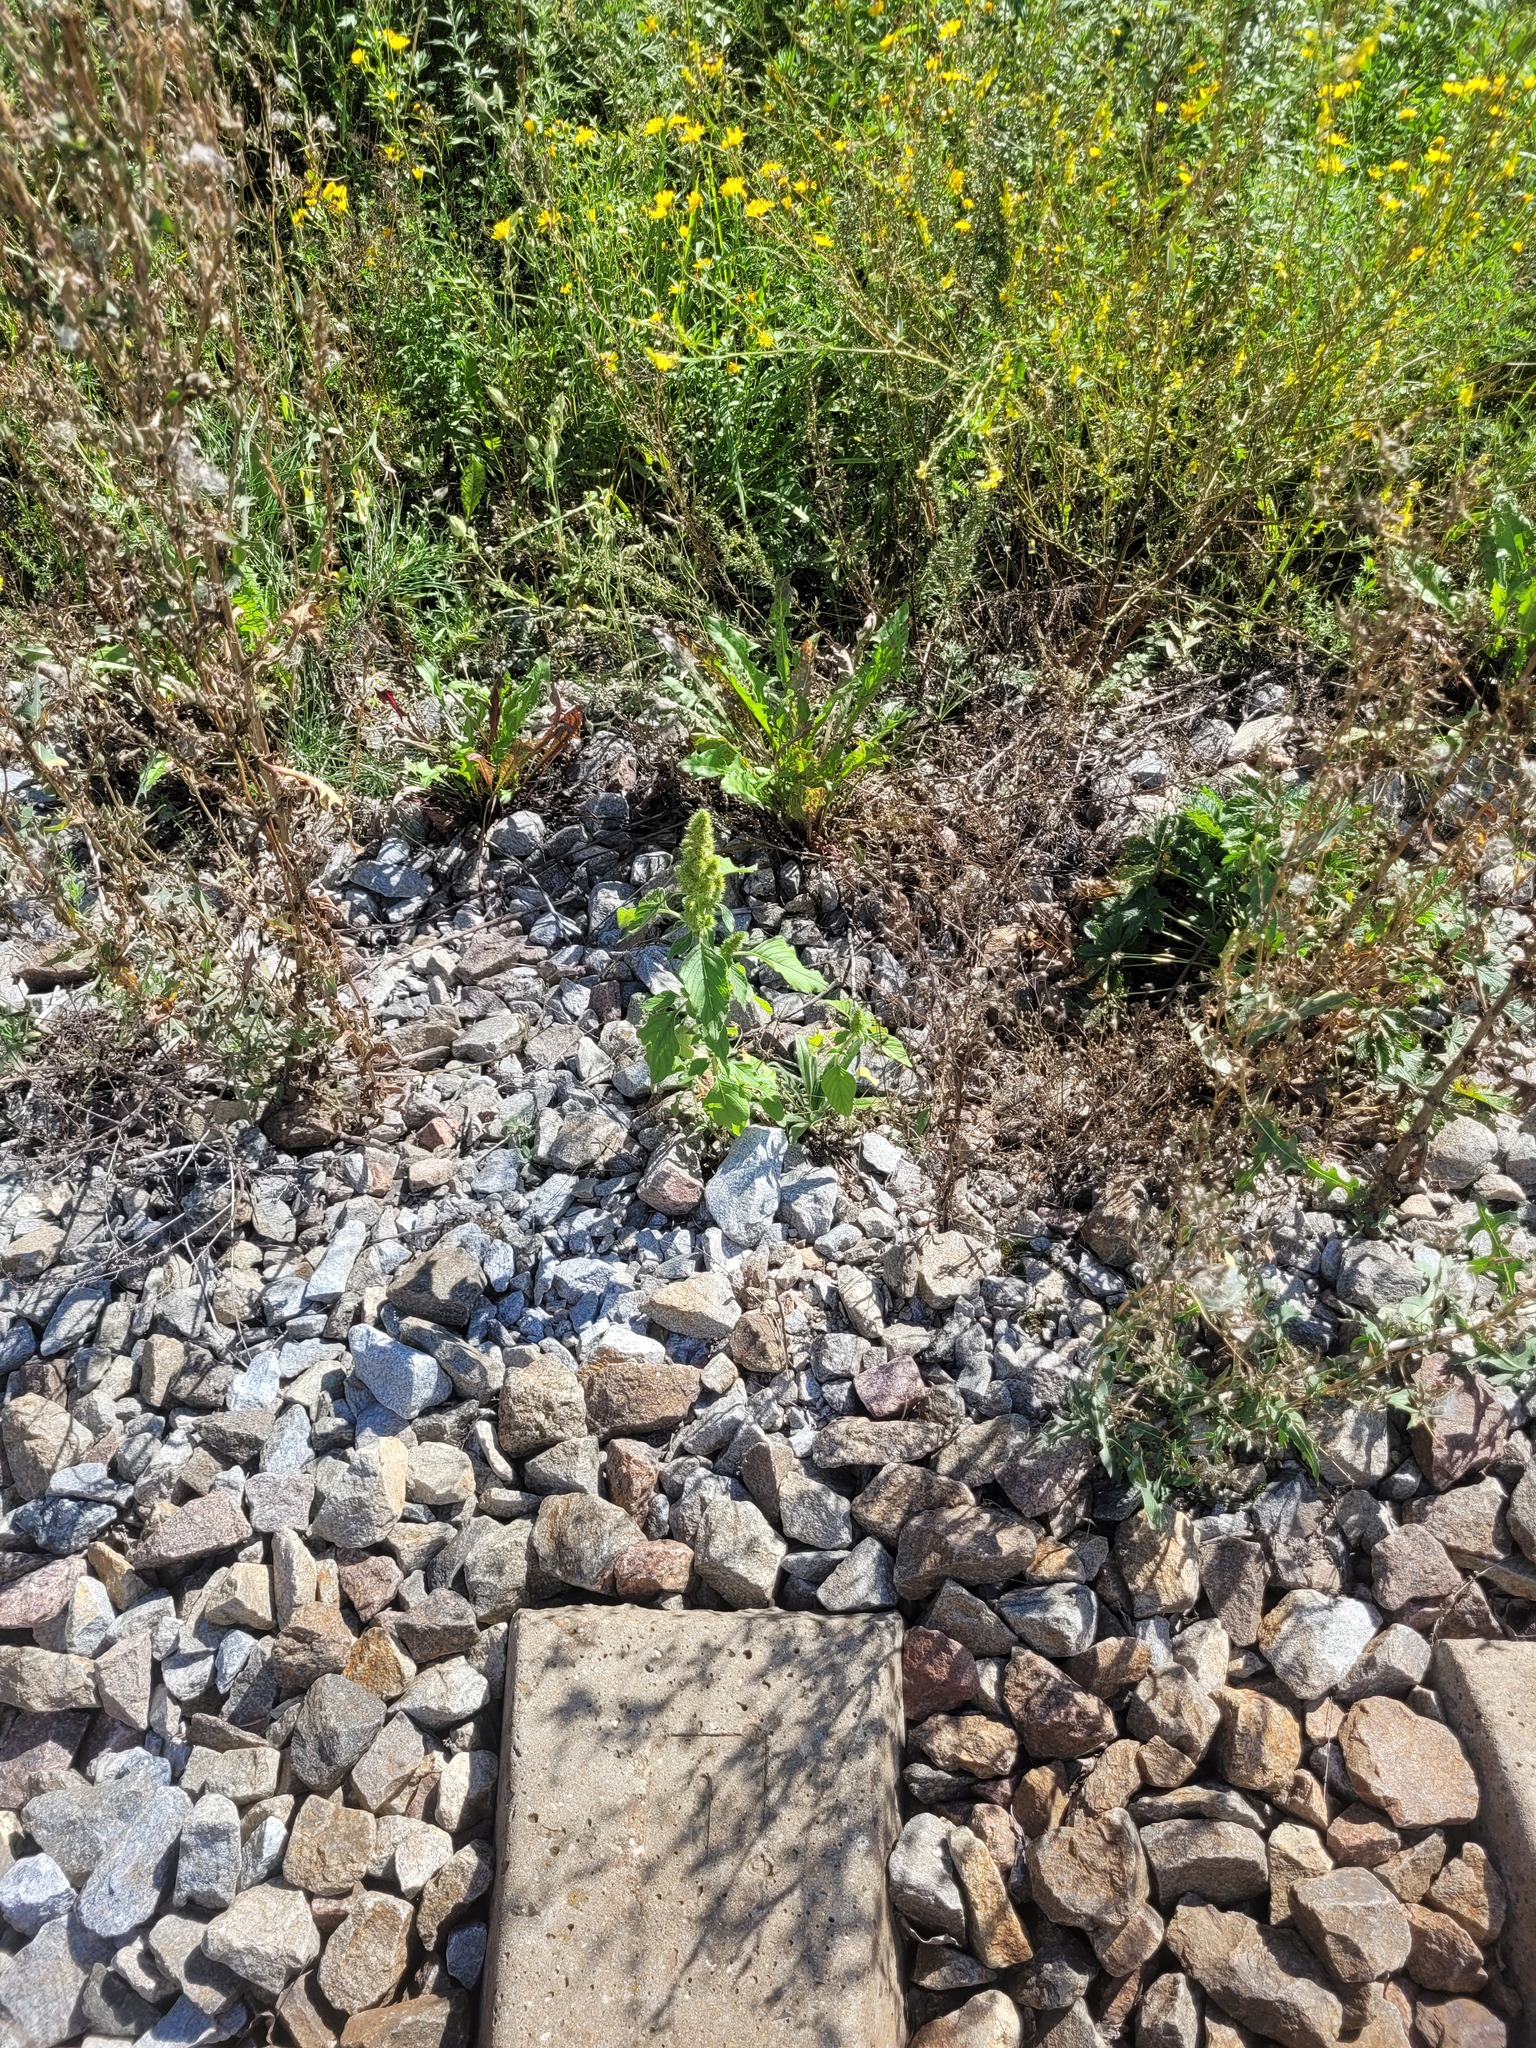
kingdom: Plantae
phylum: Tracheophyta
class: Magnoliopsida
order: Caryophyllales
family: Amaranthaceae
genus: Amaranthus
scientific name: Amaranthus retroflexus
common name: Redroot amaranth
